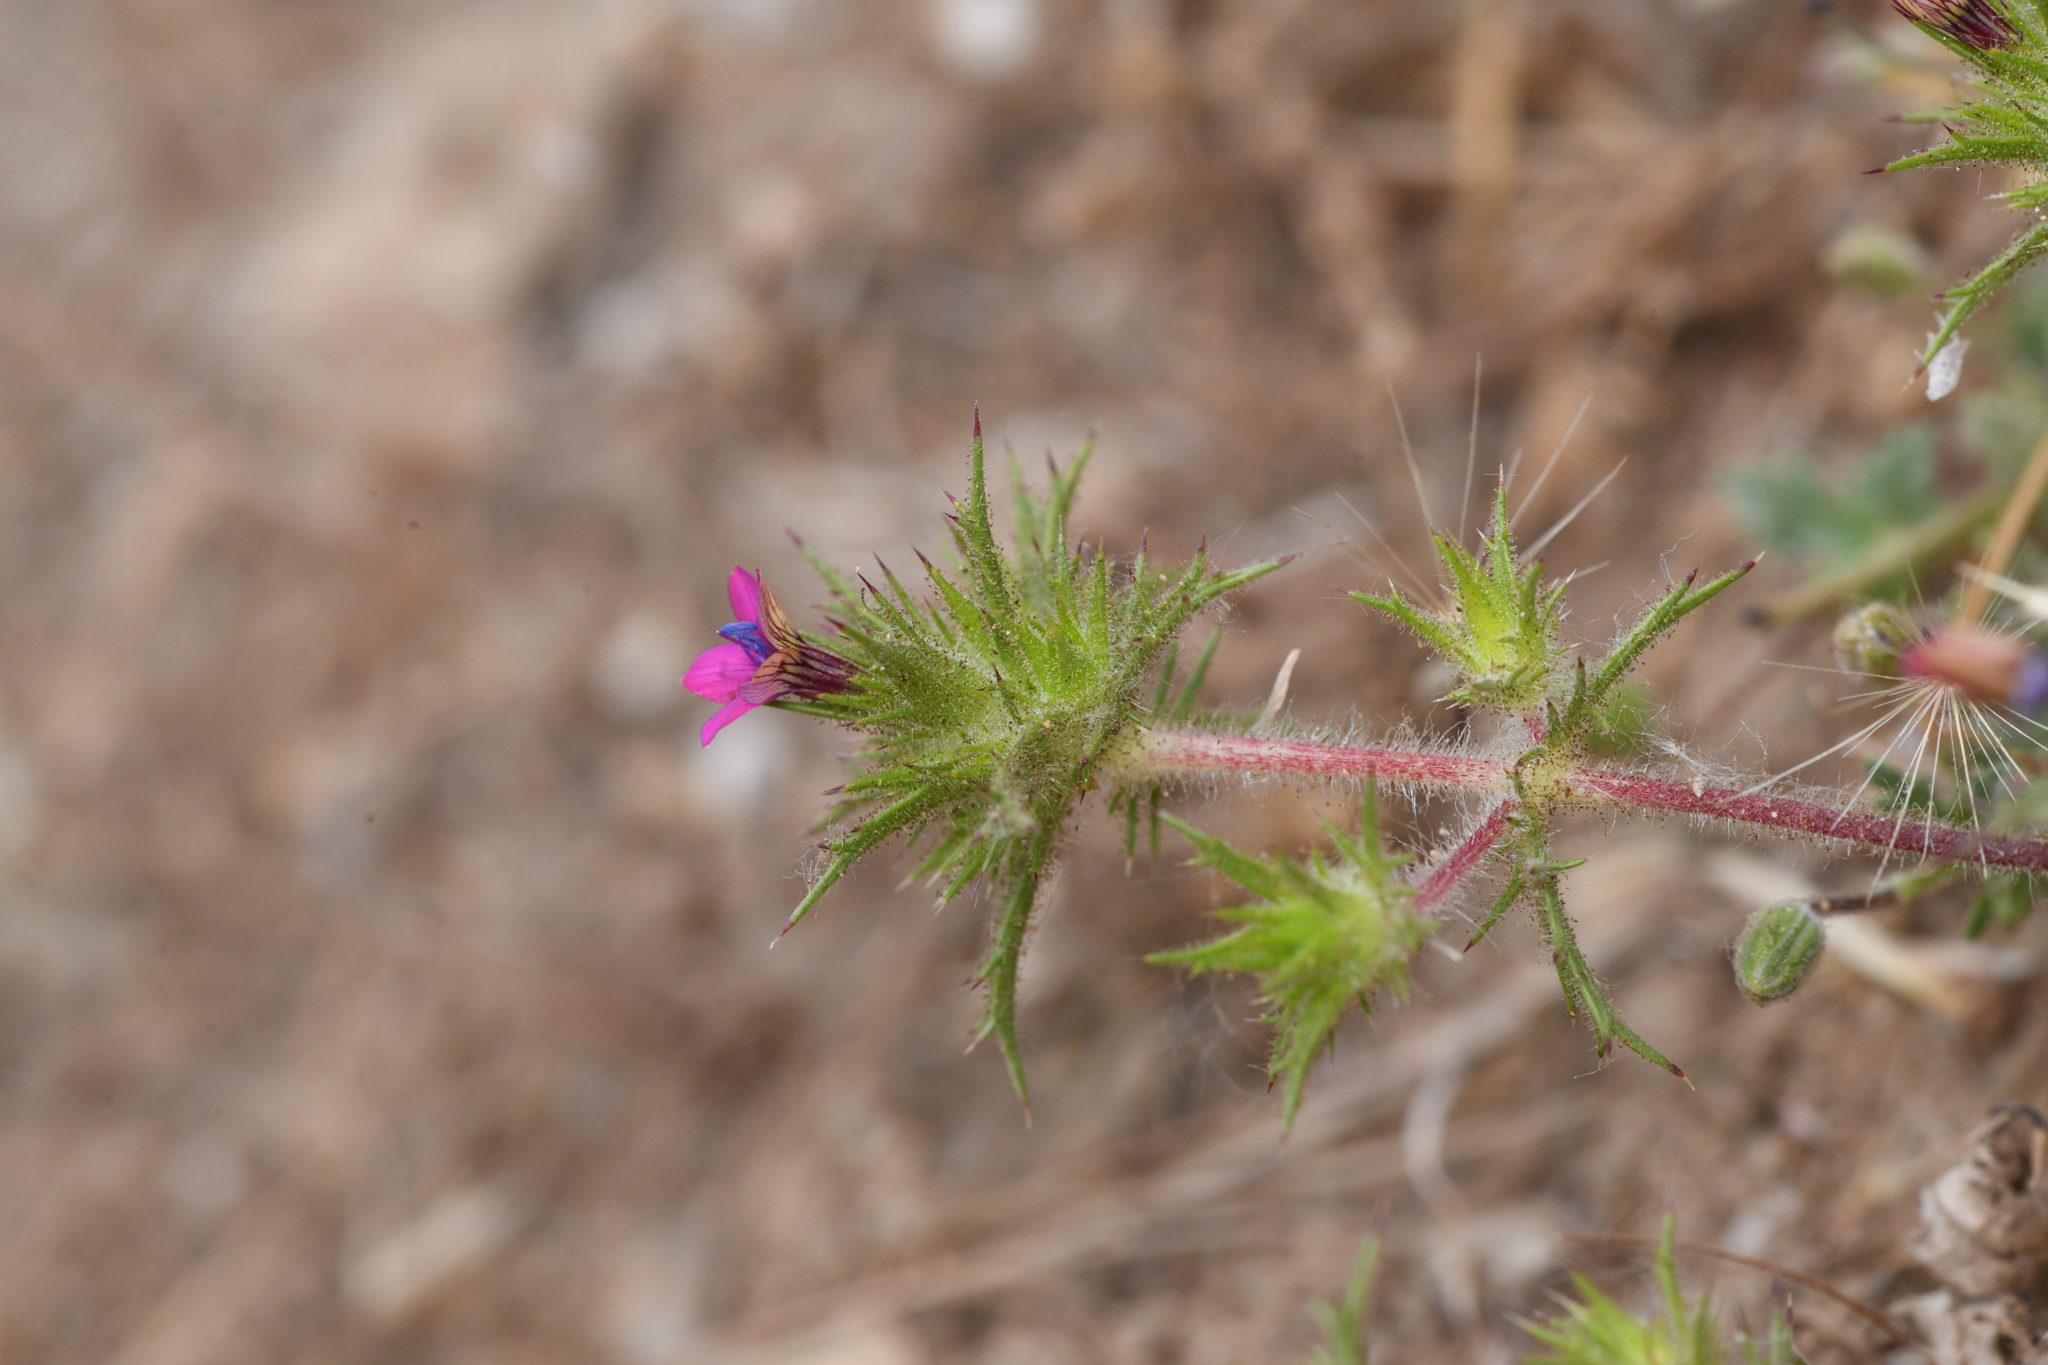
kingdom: Plantae
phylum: Tracheophyta
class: Magnoliopsida
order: Ericales
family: Polemoniaceae
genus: Navarretia
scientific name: Navarretia viscidula
